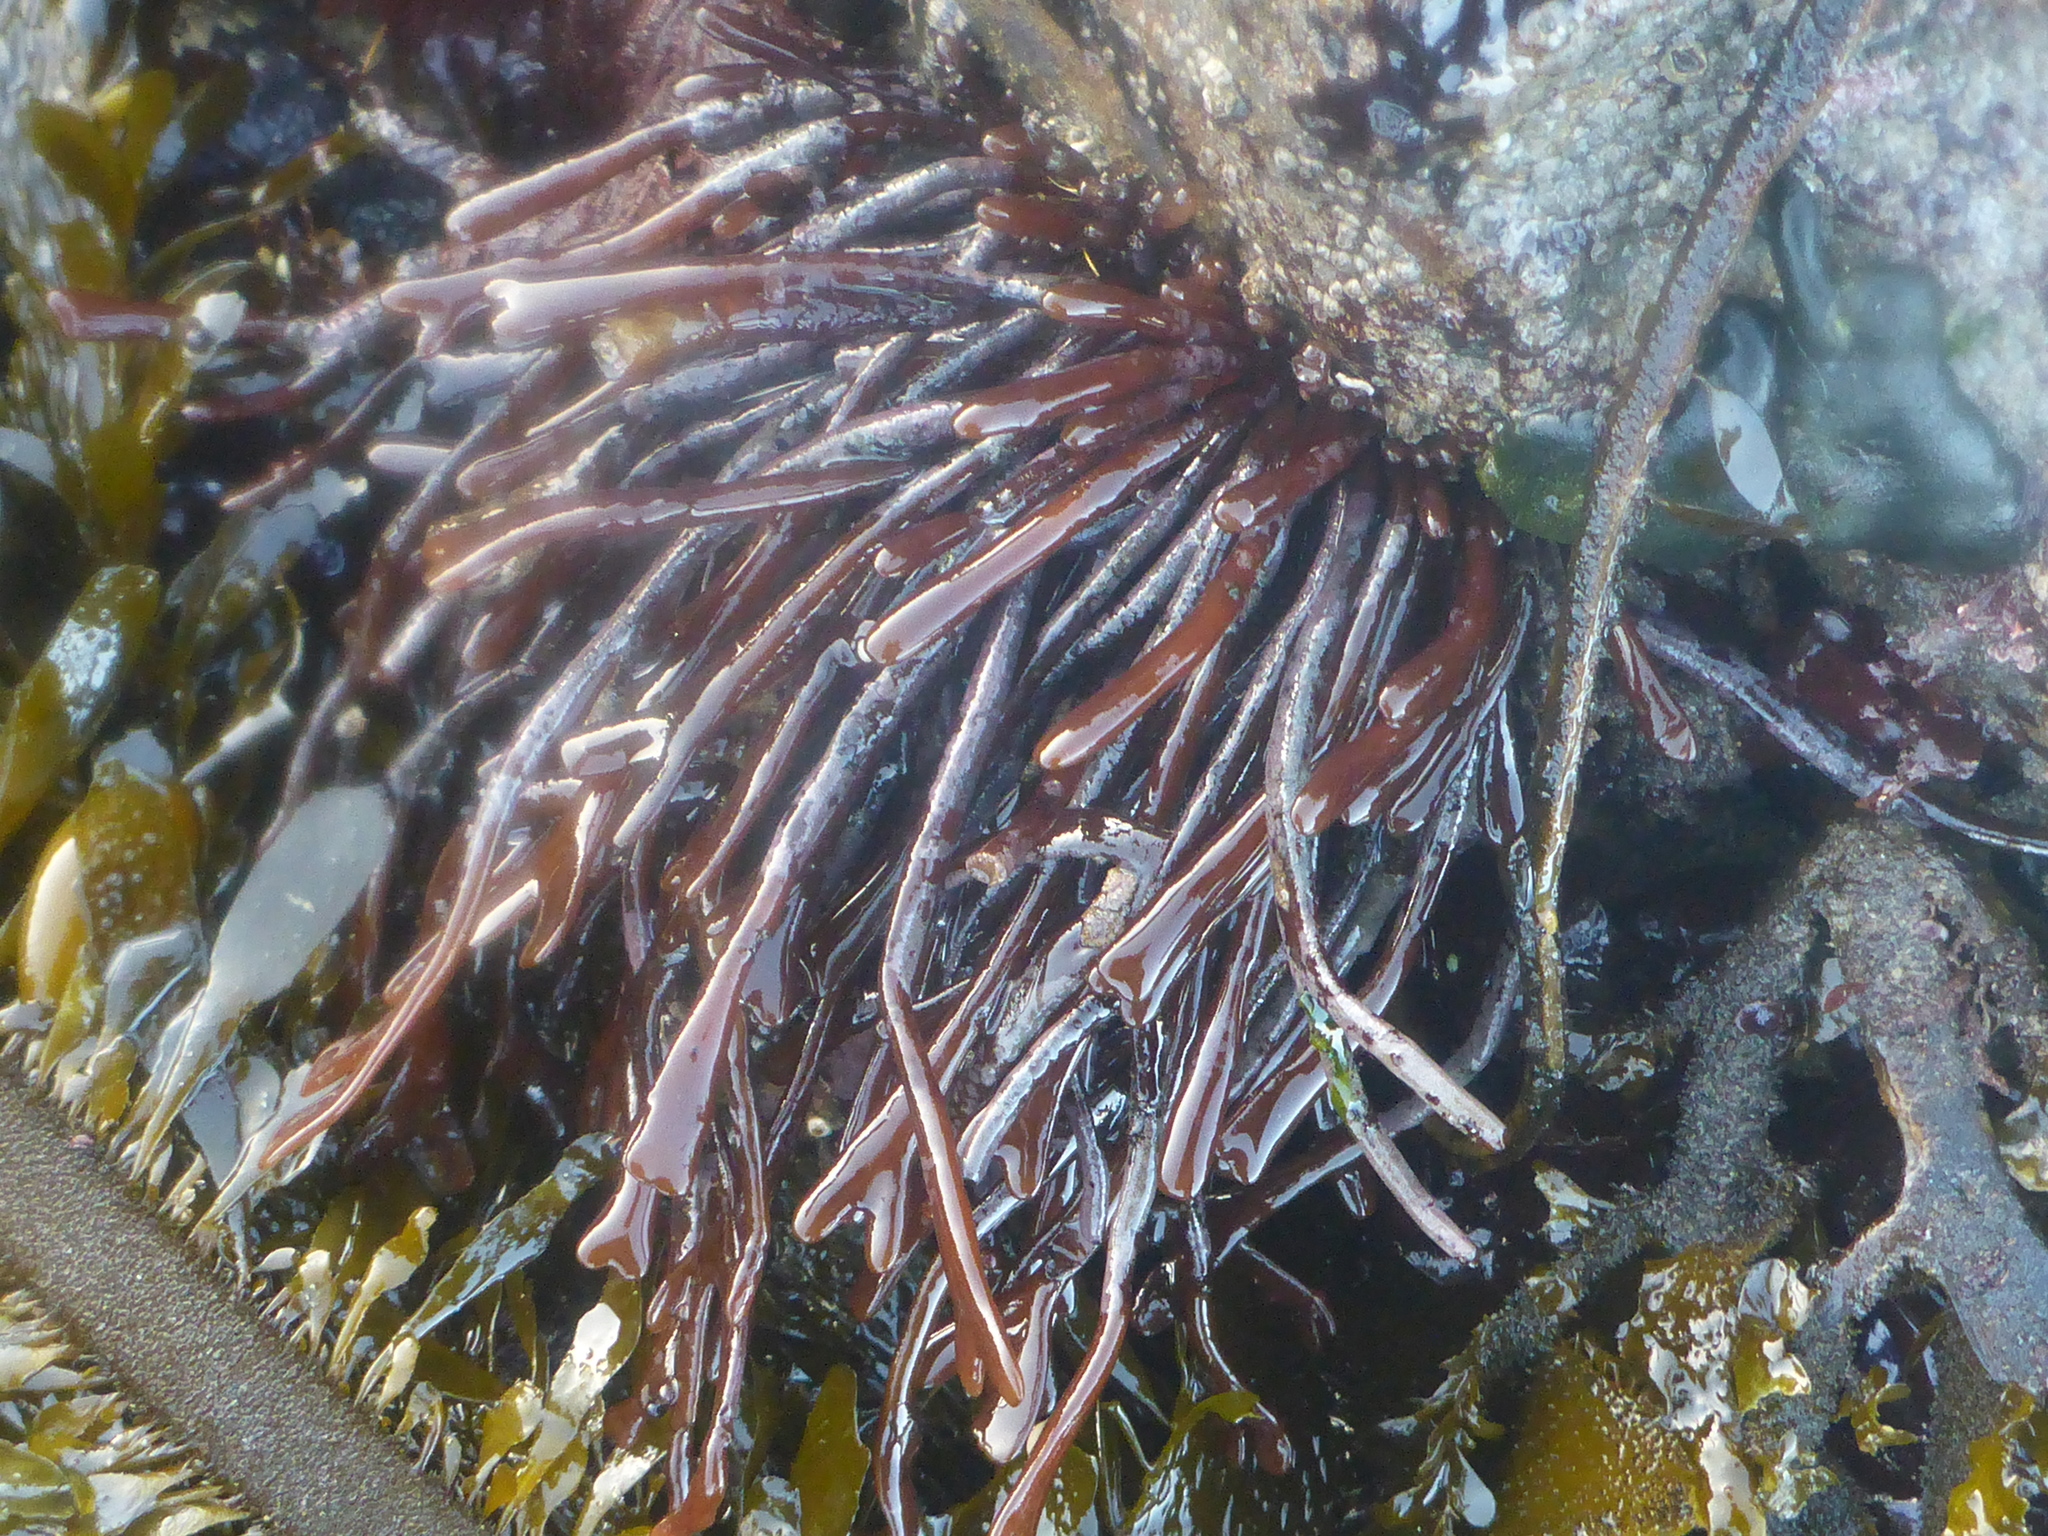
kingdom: Plantae
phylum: Rhodophyta
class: Florideophyceae
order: Gigartinales
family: Phyllophoraceae
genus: Ahnfeltiopsis
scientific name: Ahnfeltiopsis linearis
